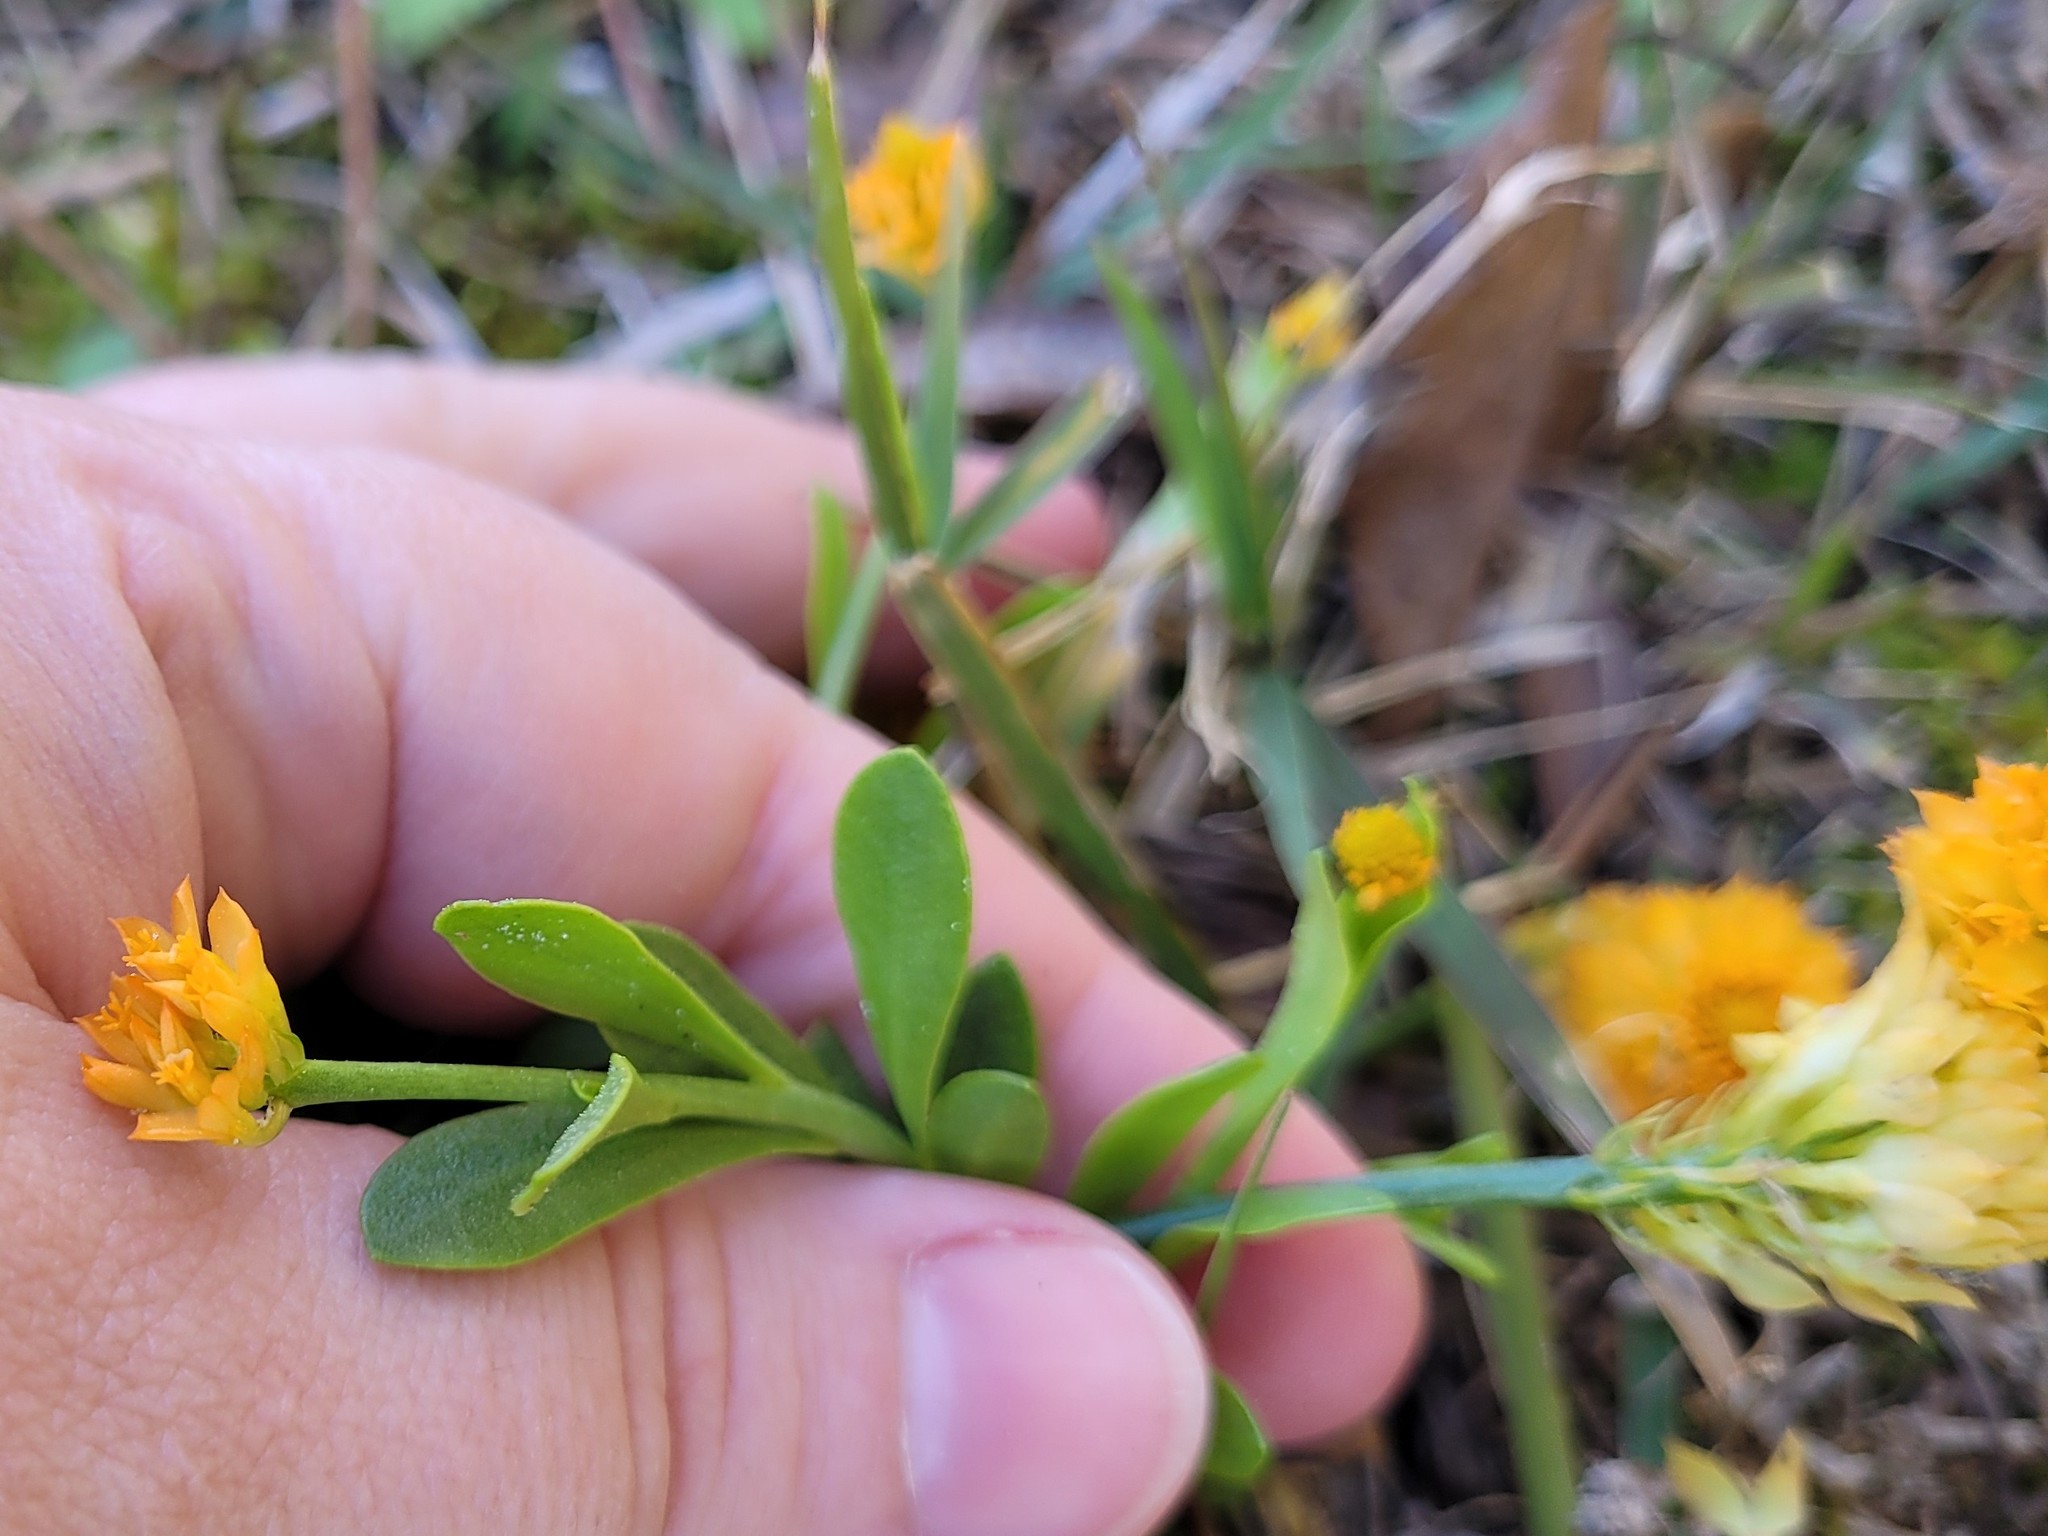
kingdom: Plantae
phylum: Tracheophyta
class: Magnoliopsida
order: Fabales
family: Polygalaceae
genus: Polygala
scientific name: Polygala lutea
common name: Orange milkwort
